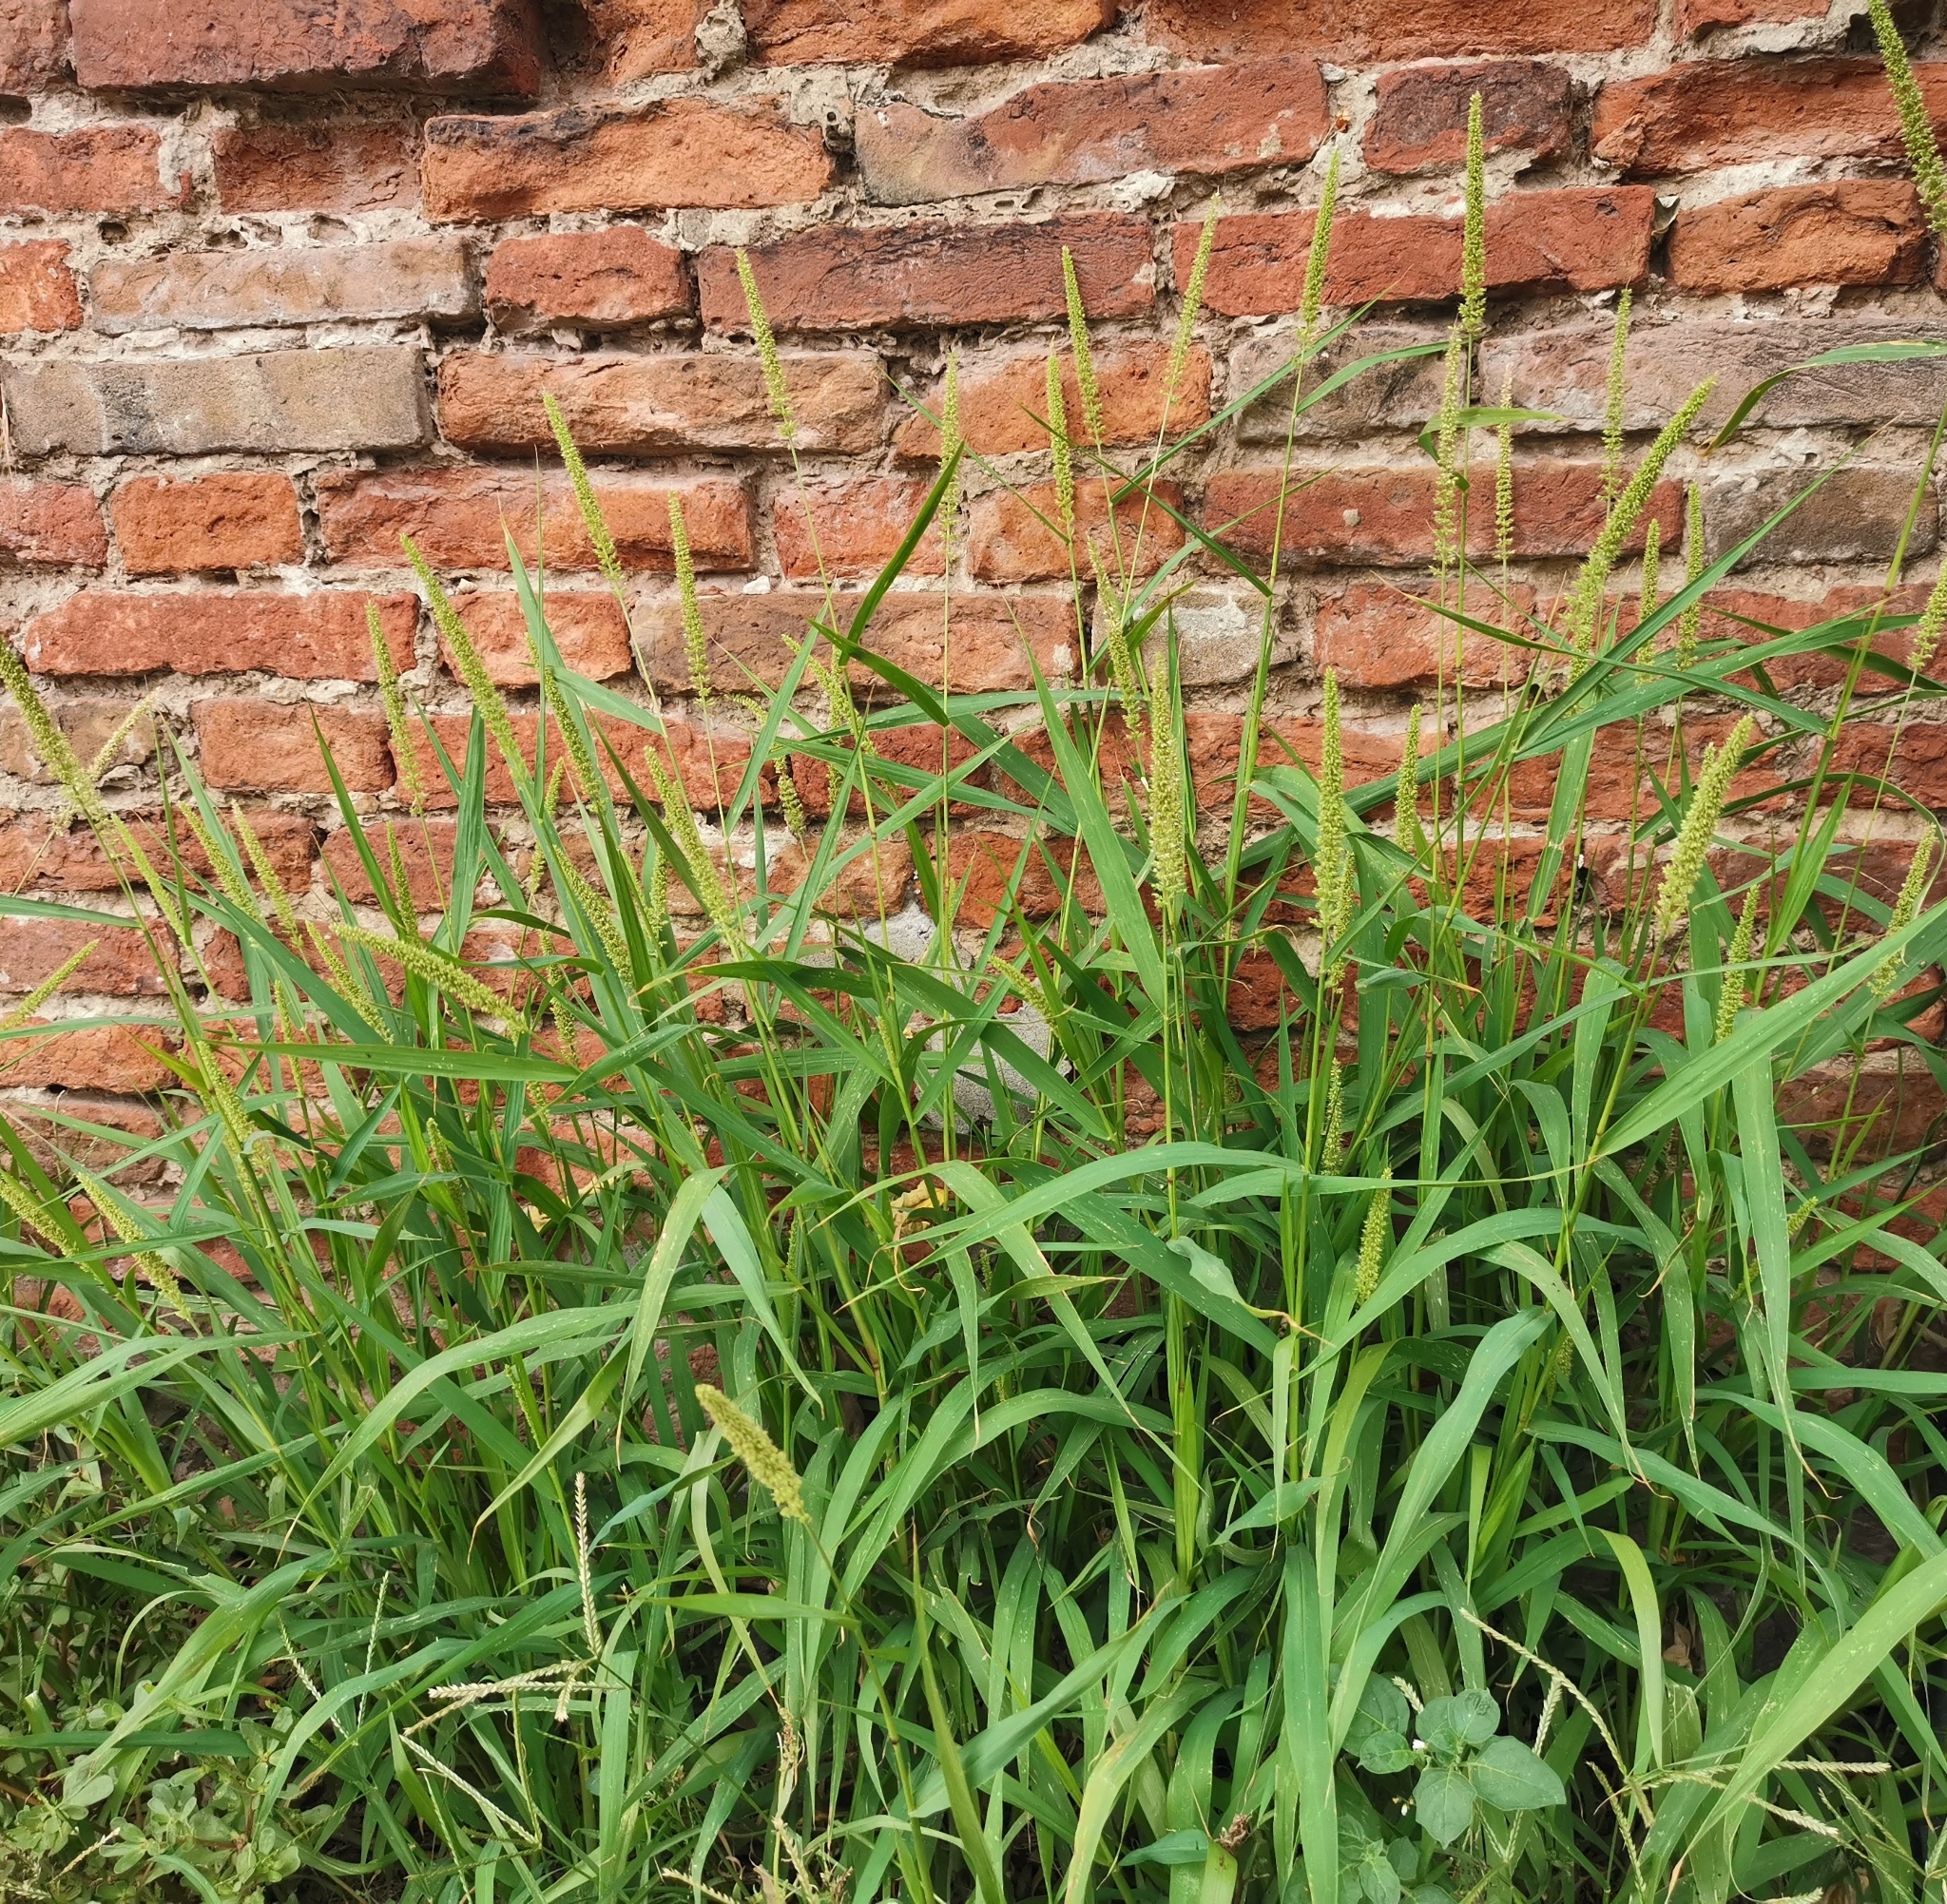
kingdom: Plantae
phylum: Tracheophyta
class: Liliopsida
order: Poales
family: Poaceae
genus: Setaria
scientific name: Setaria verticillata
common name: Hooked bristlegrass
